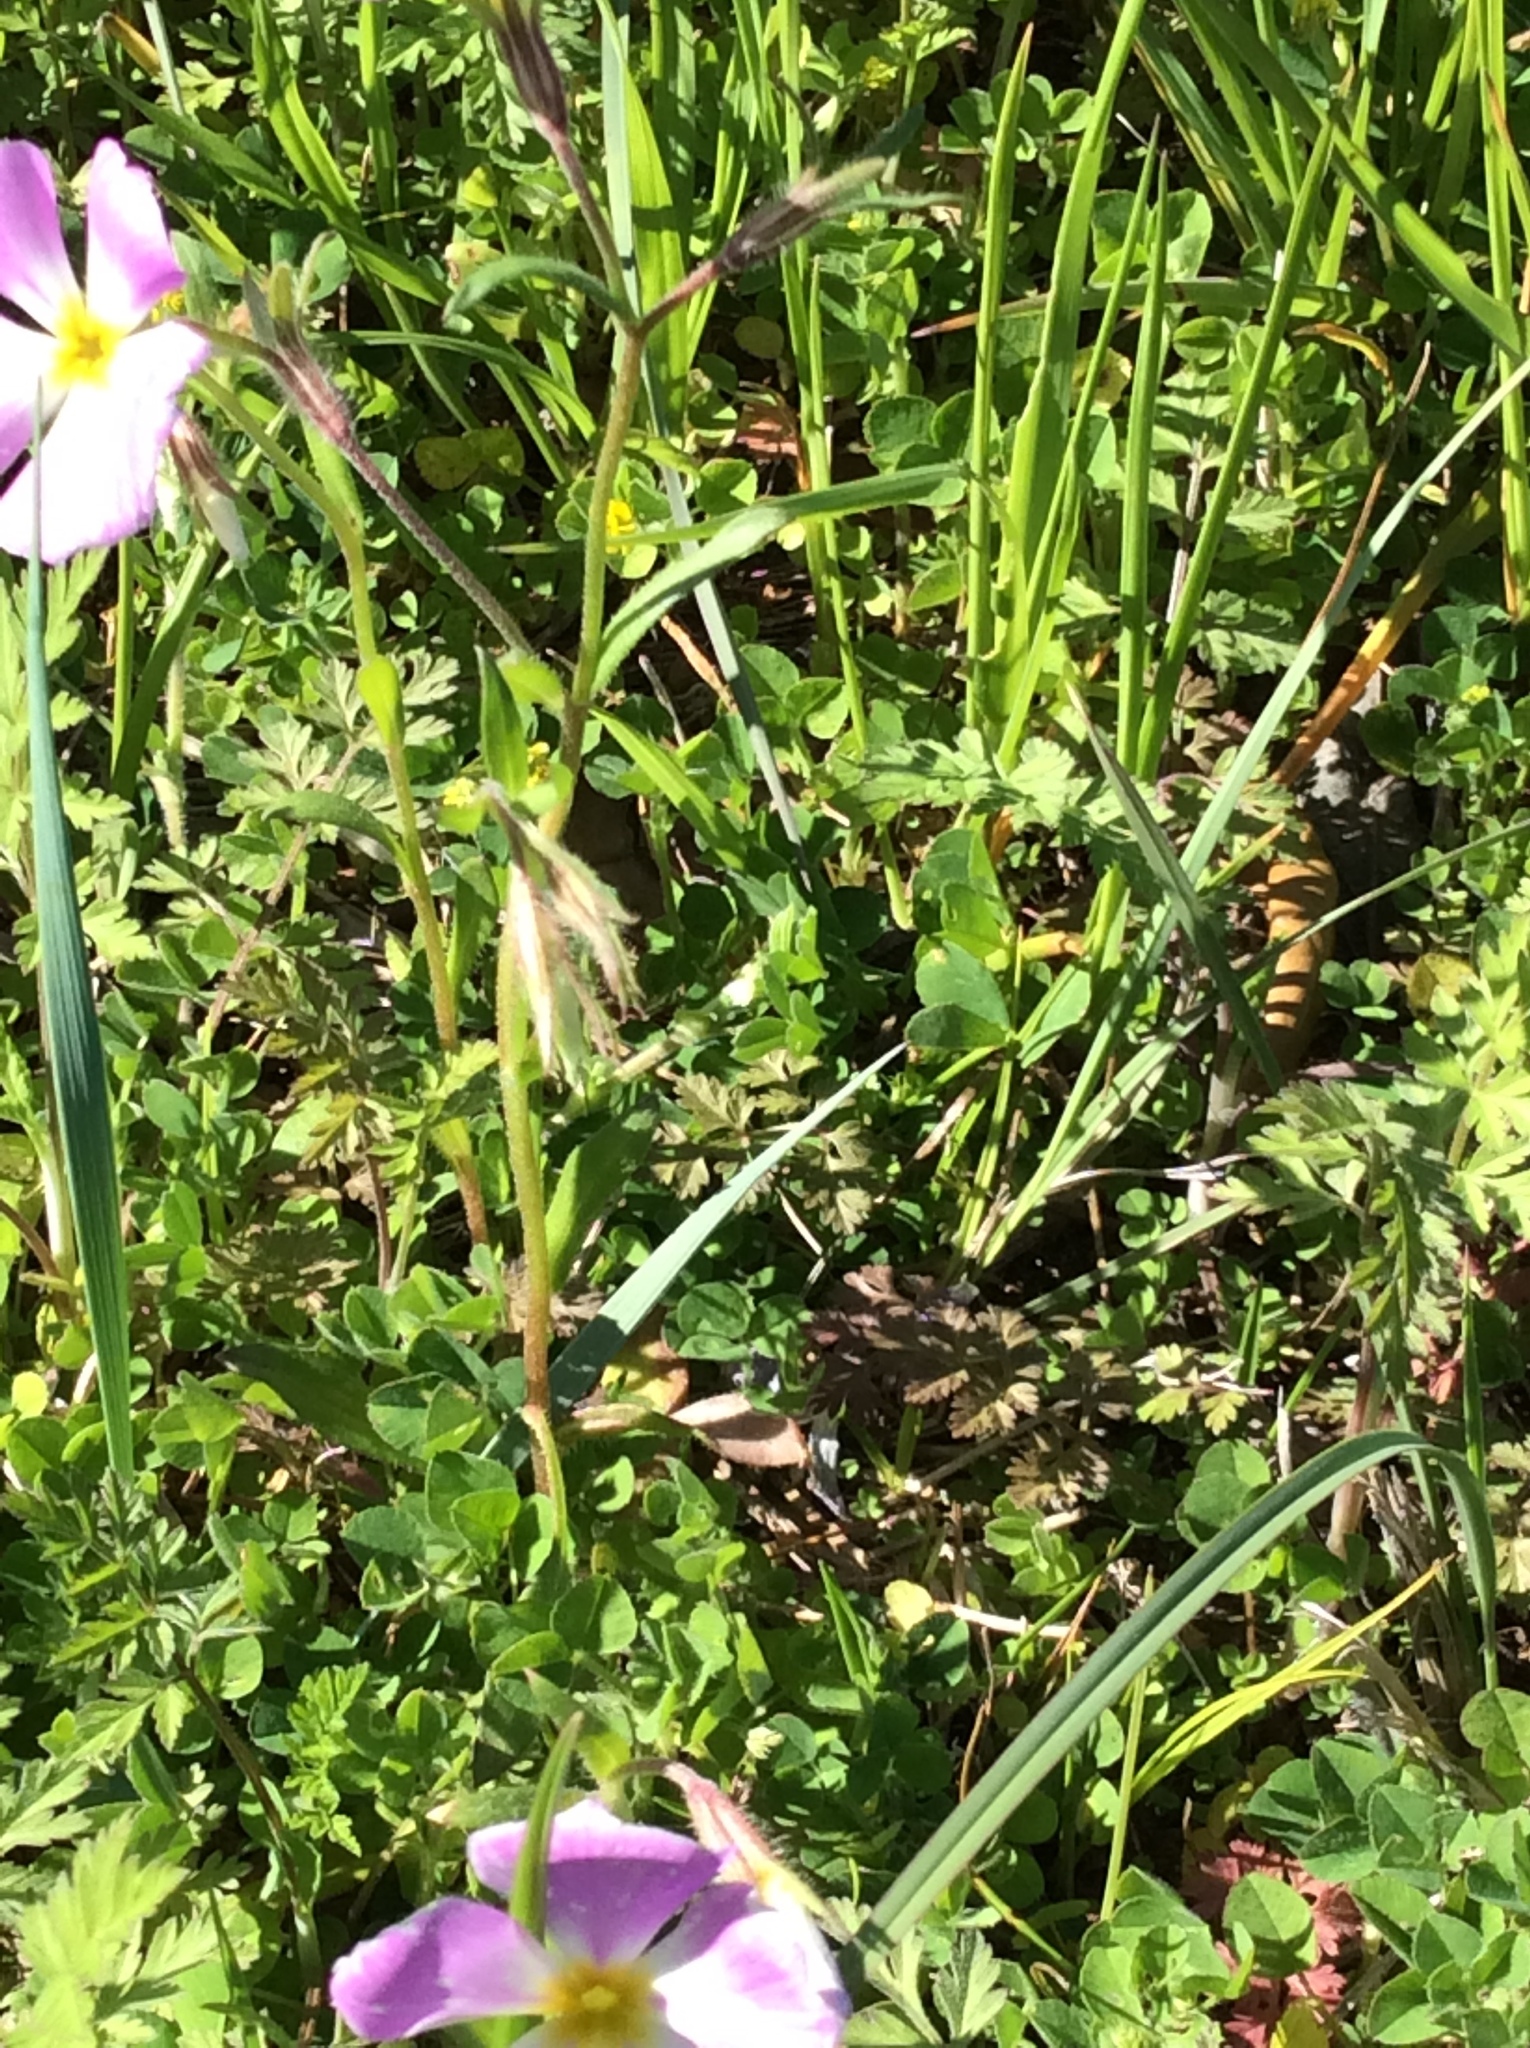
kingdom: Plantae
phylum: Tracheophyta
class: Magnoliopsida
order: Ericales
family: Polemoniaceae
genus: Phlox
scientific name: Phlox roemeriana
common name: Roemer's phlox
